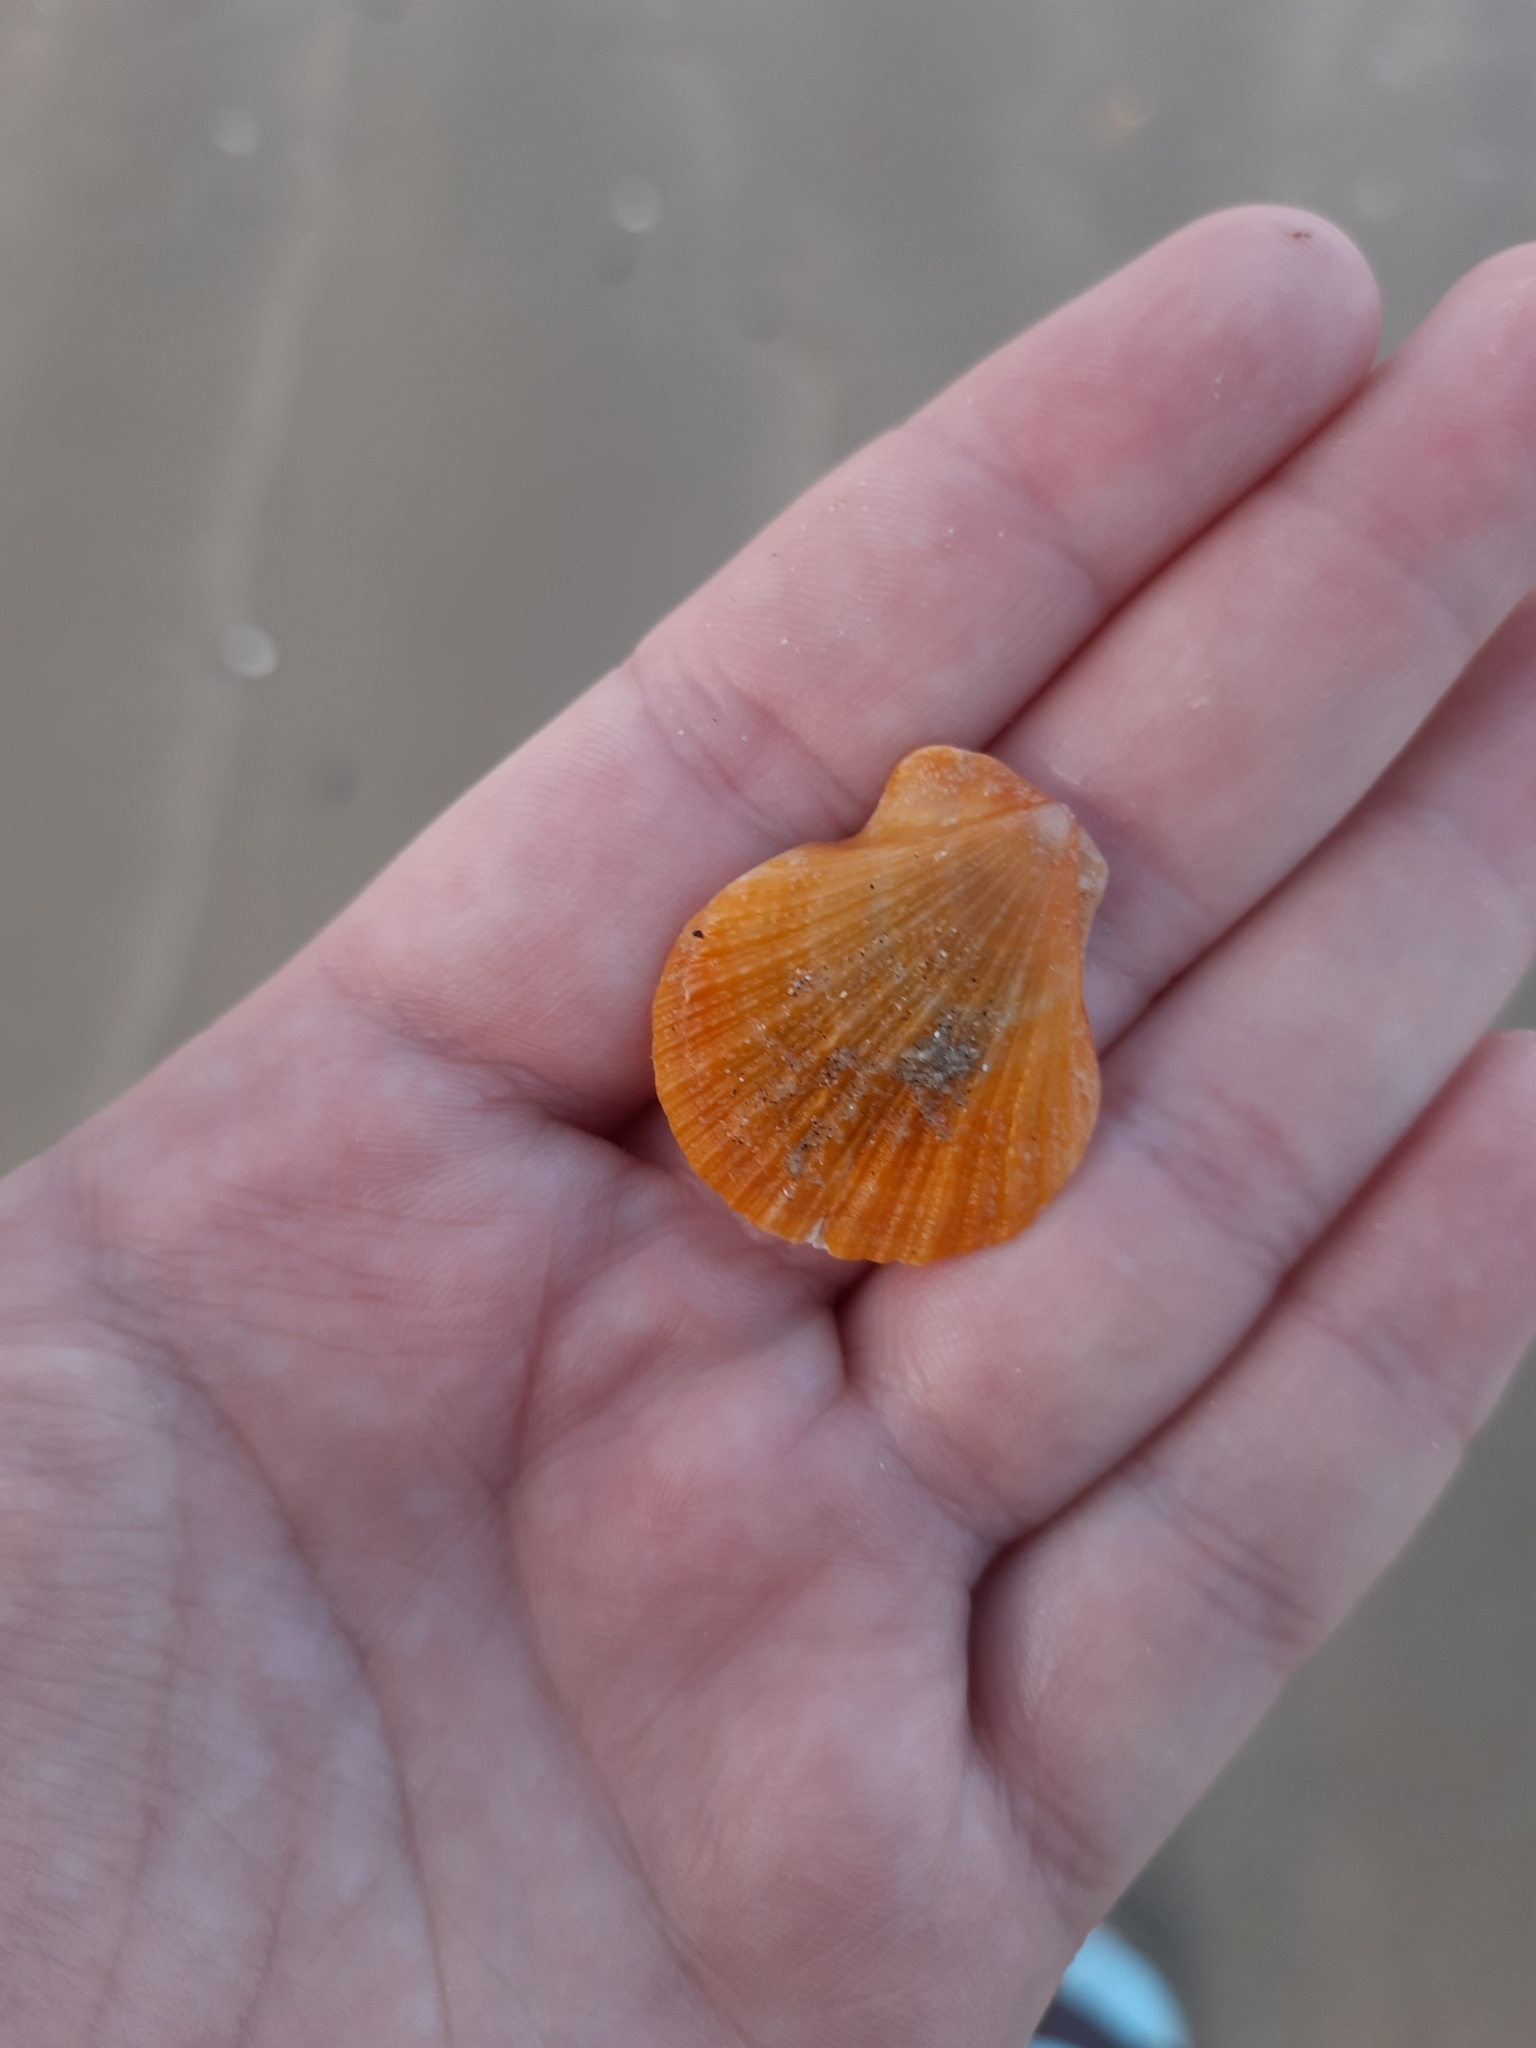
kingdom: Animalia
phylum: Mollusca
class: Bivalvia
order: Pectinida
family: Pectinidae
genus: Talochlamys
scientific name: Talochlamys zelandiae
